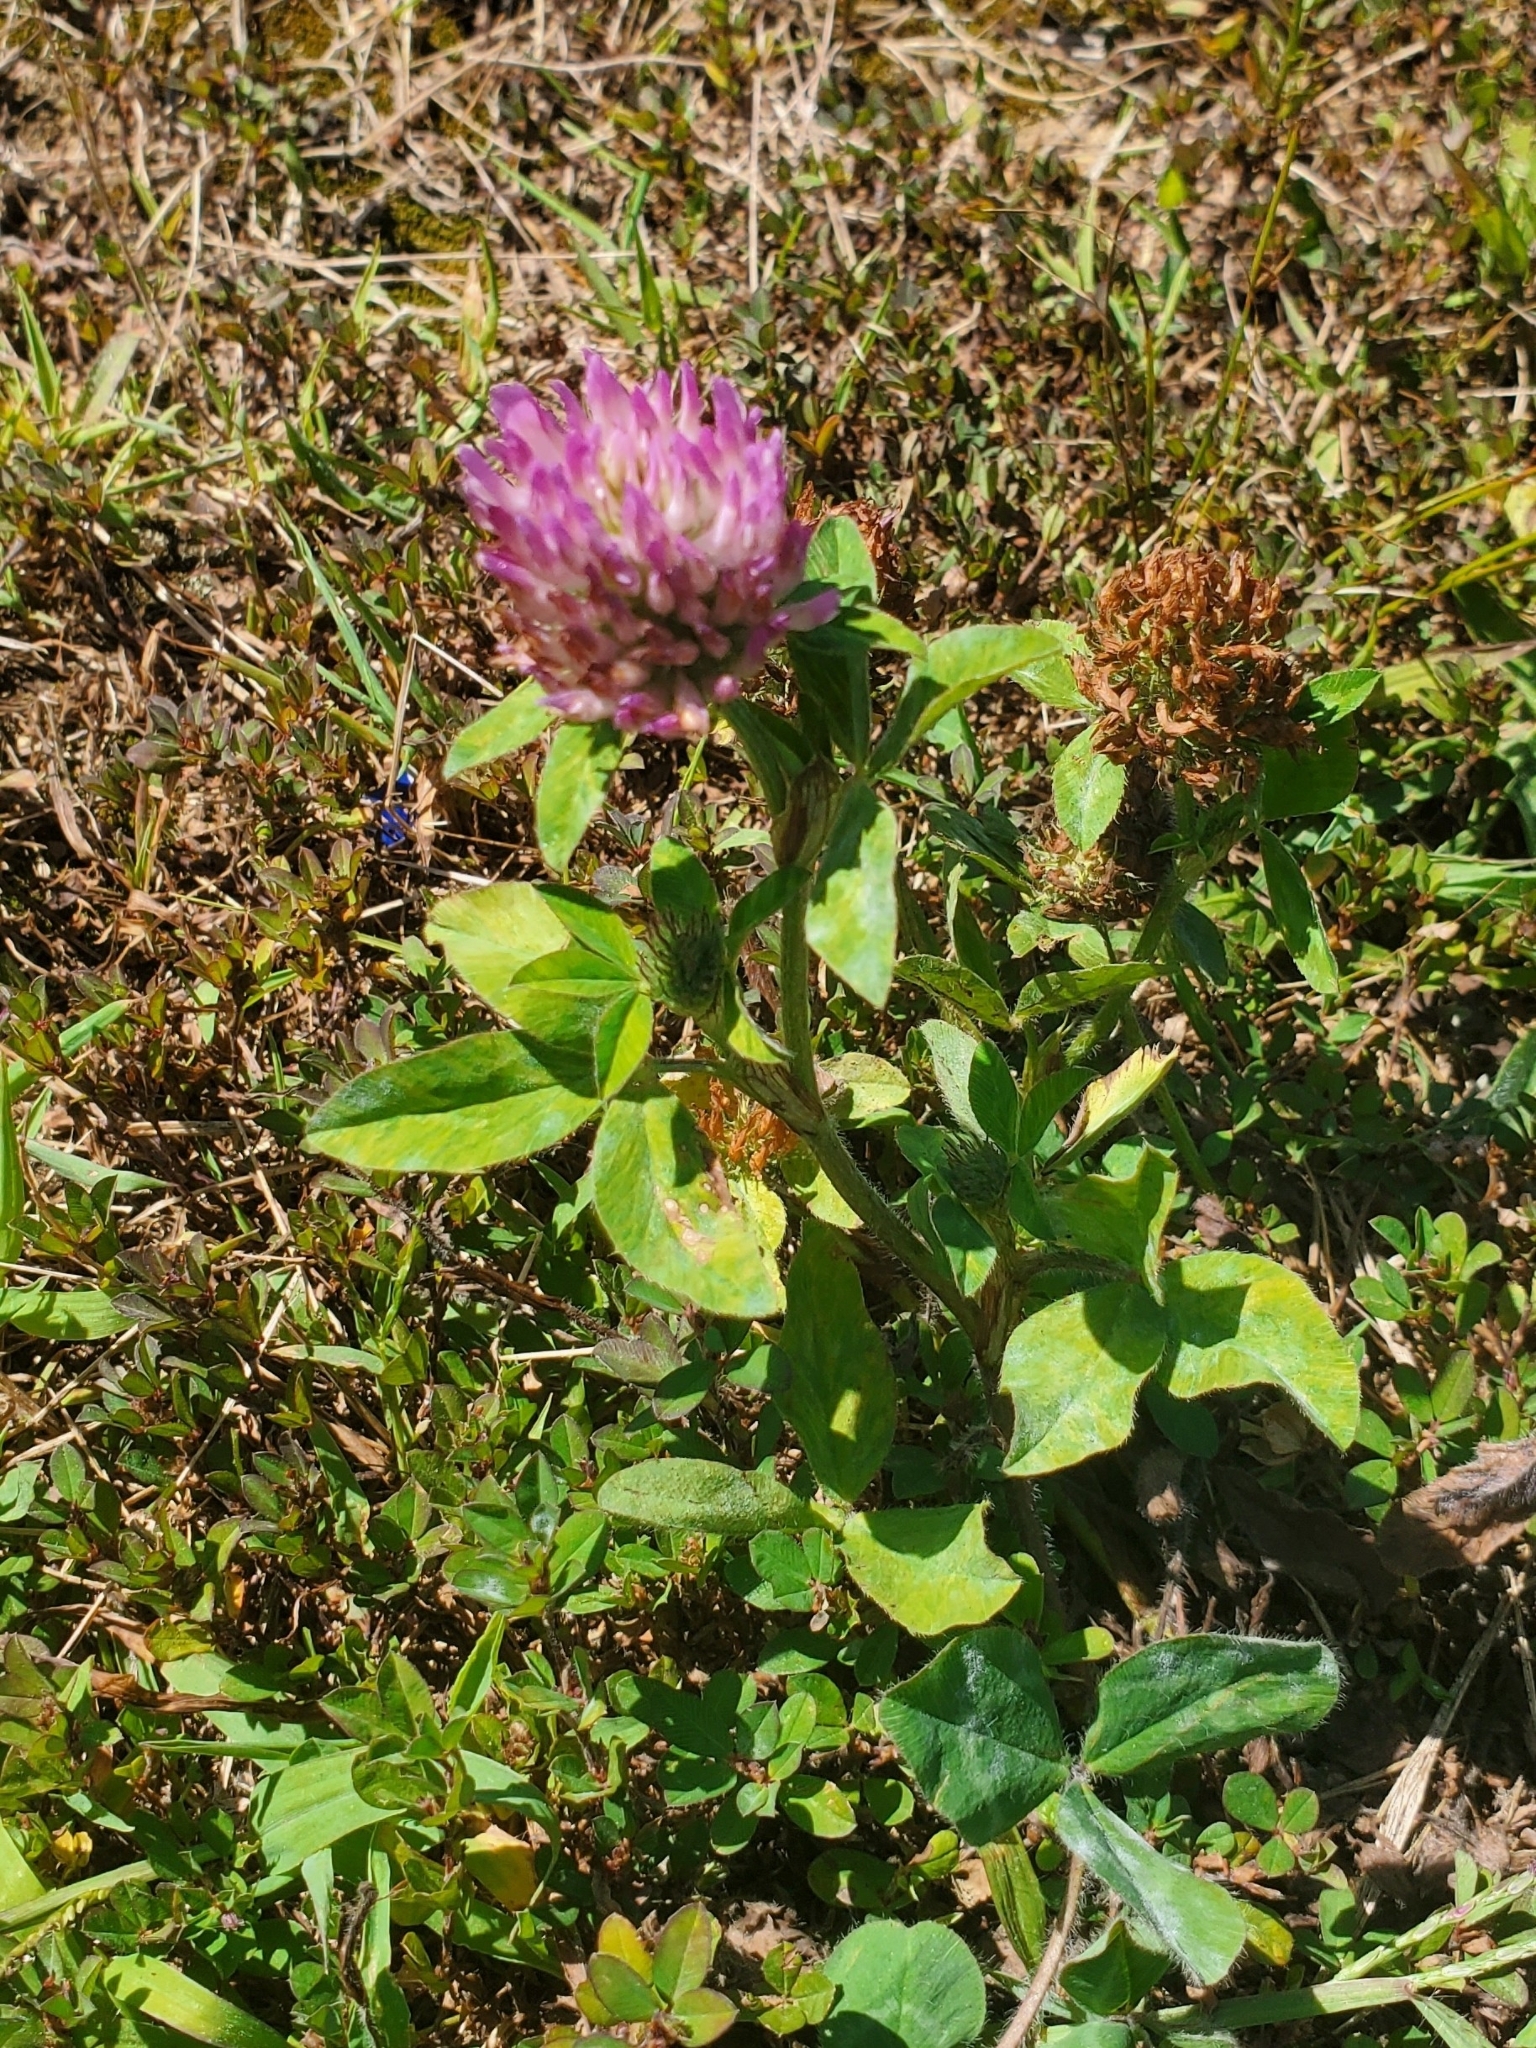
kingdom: Plantae
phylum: Tracheophyta
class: Magnoliopsida
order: Fabales
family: Fabaceae
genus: Trifolium
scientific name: Trifolium pratense
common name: Red clover
